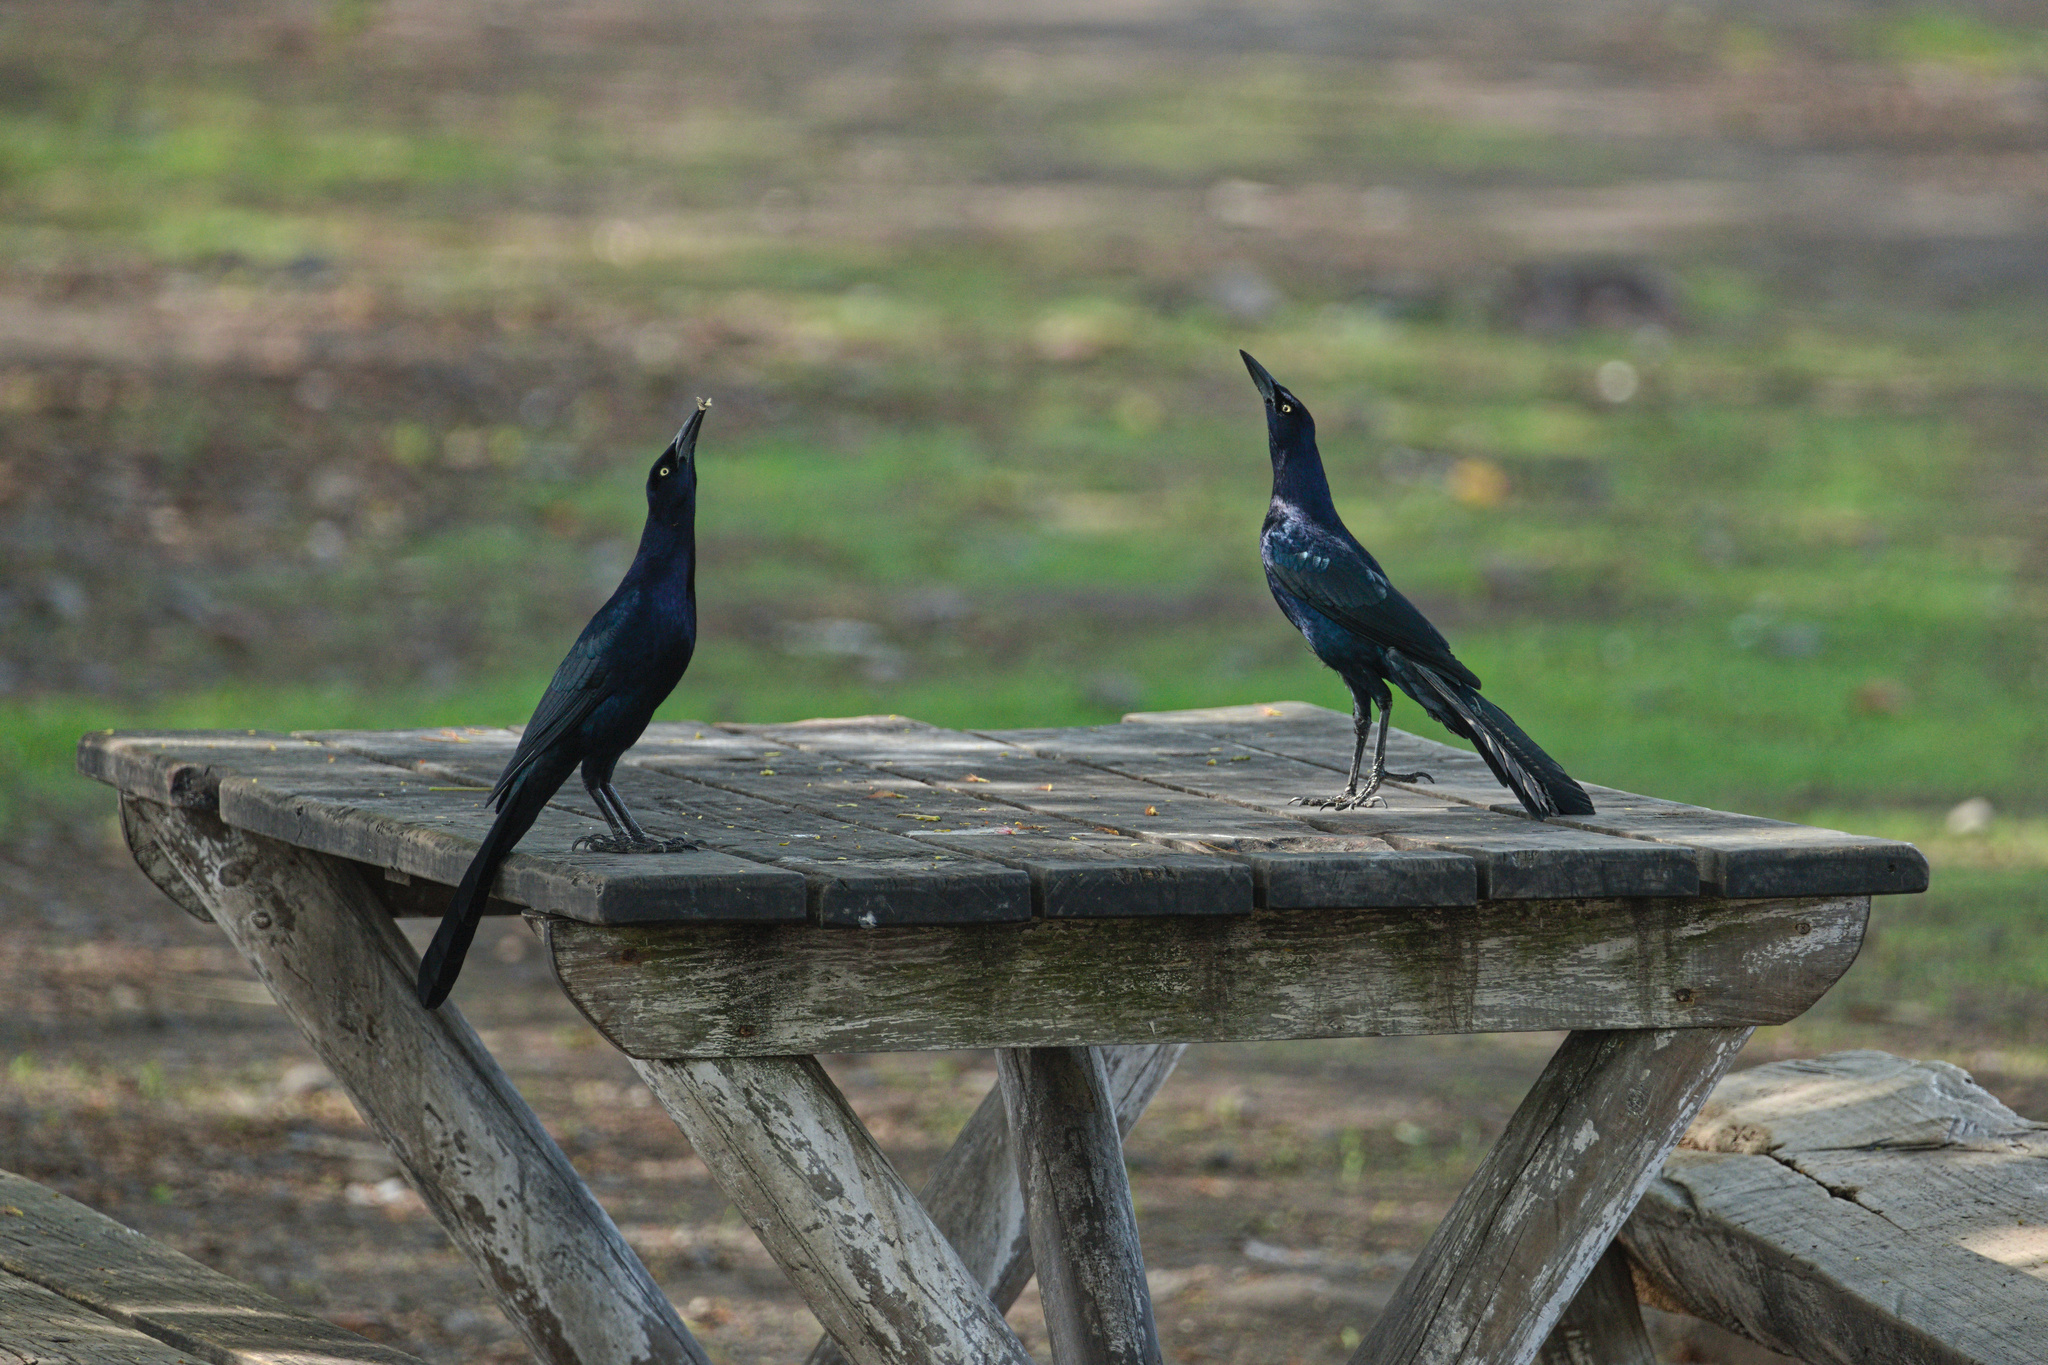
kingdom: Animalia
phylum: Chordata
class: Aves
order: Passeriformes
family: Icteridae
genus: Quiscalus
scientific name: Quiscalus mexicanus
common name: Great-tailed grackle
